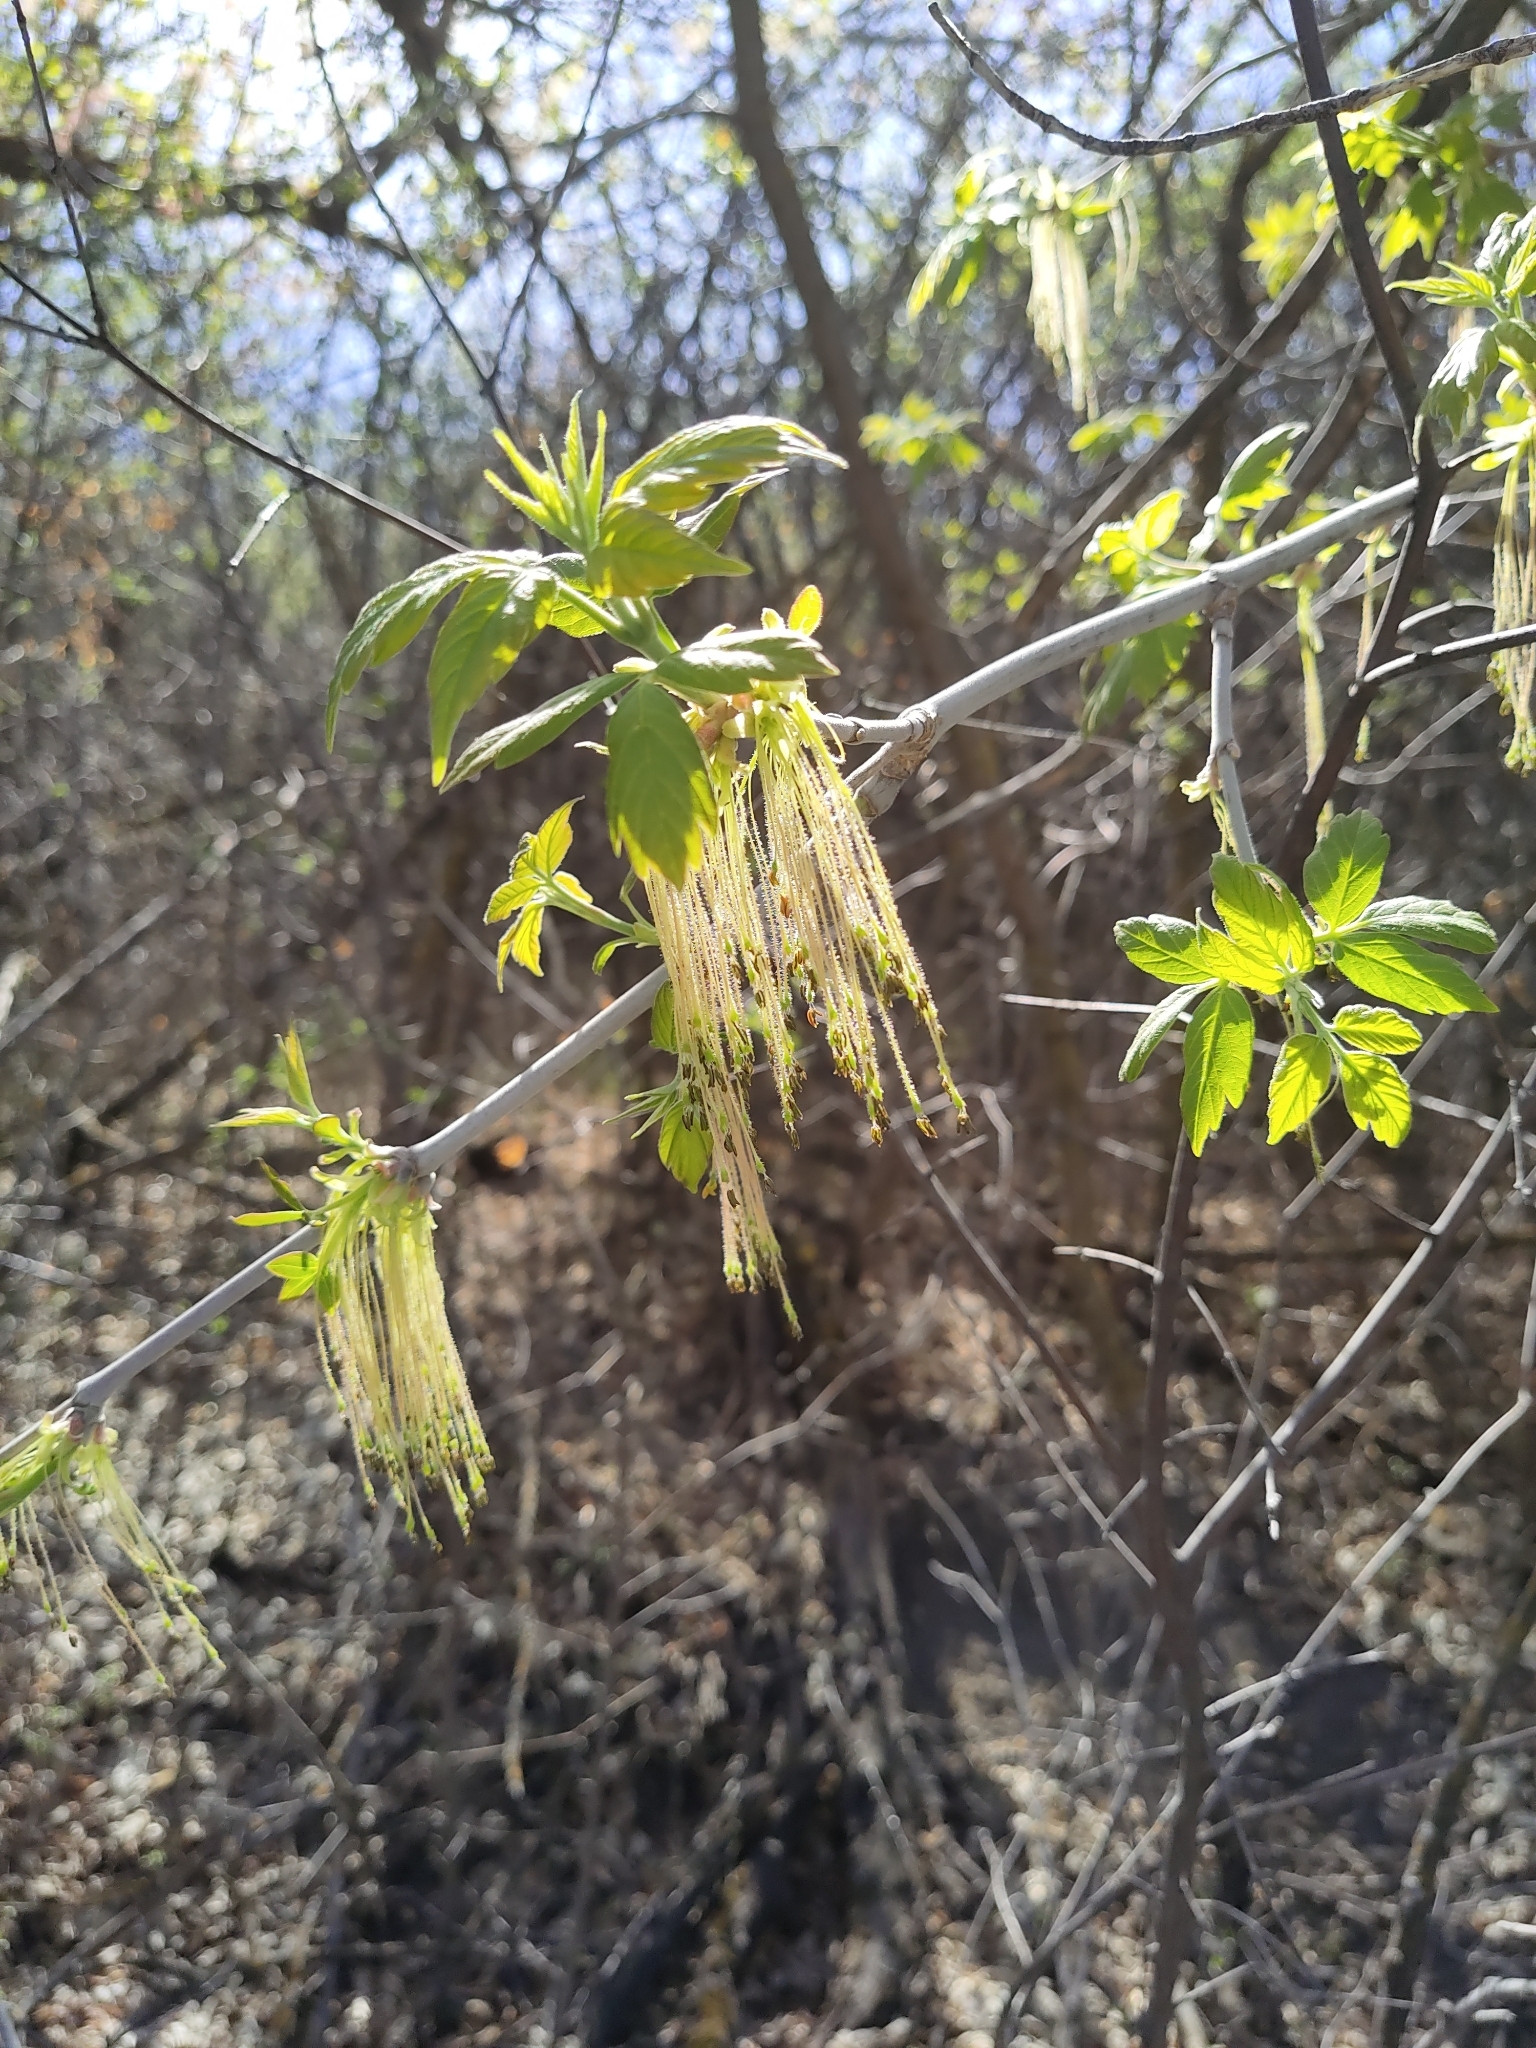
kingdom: Plantae
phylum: Tracheophyta
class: Magnoliopsida
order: Sapindales
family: Sapindaceae
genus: Acer
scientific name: Acer negundo
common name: Ashleaf maple
